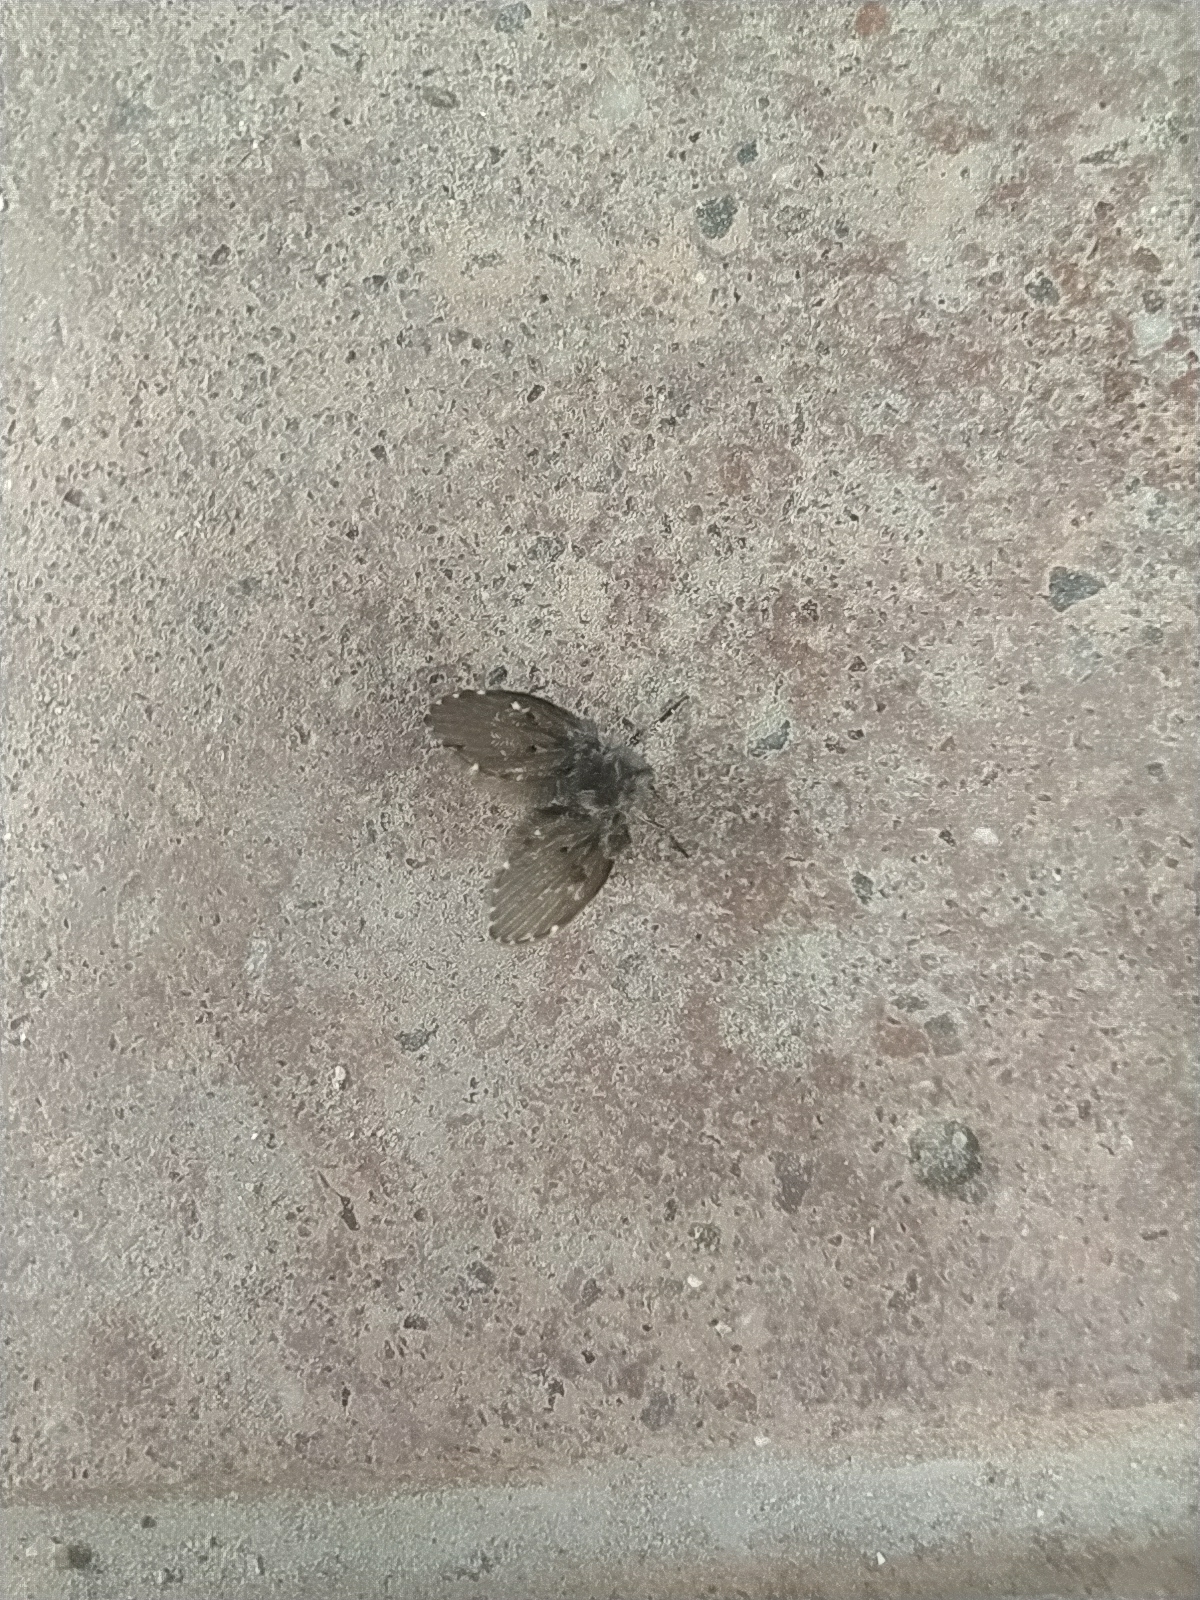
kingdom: Animalia
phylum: Arthropoda
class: Insecta
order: Diptera
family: Psychodidae
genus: Clogmia
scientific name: Clogmia albipunctatus
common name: White-spotted moth fly
